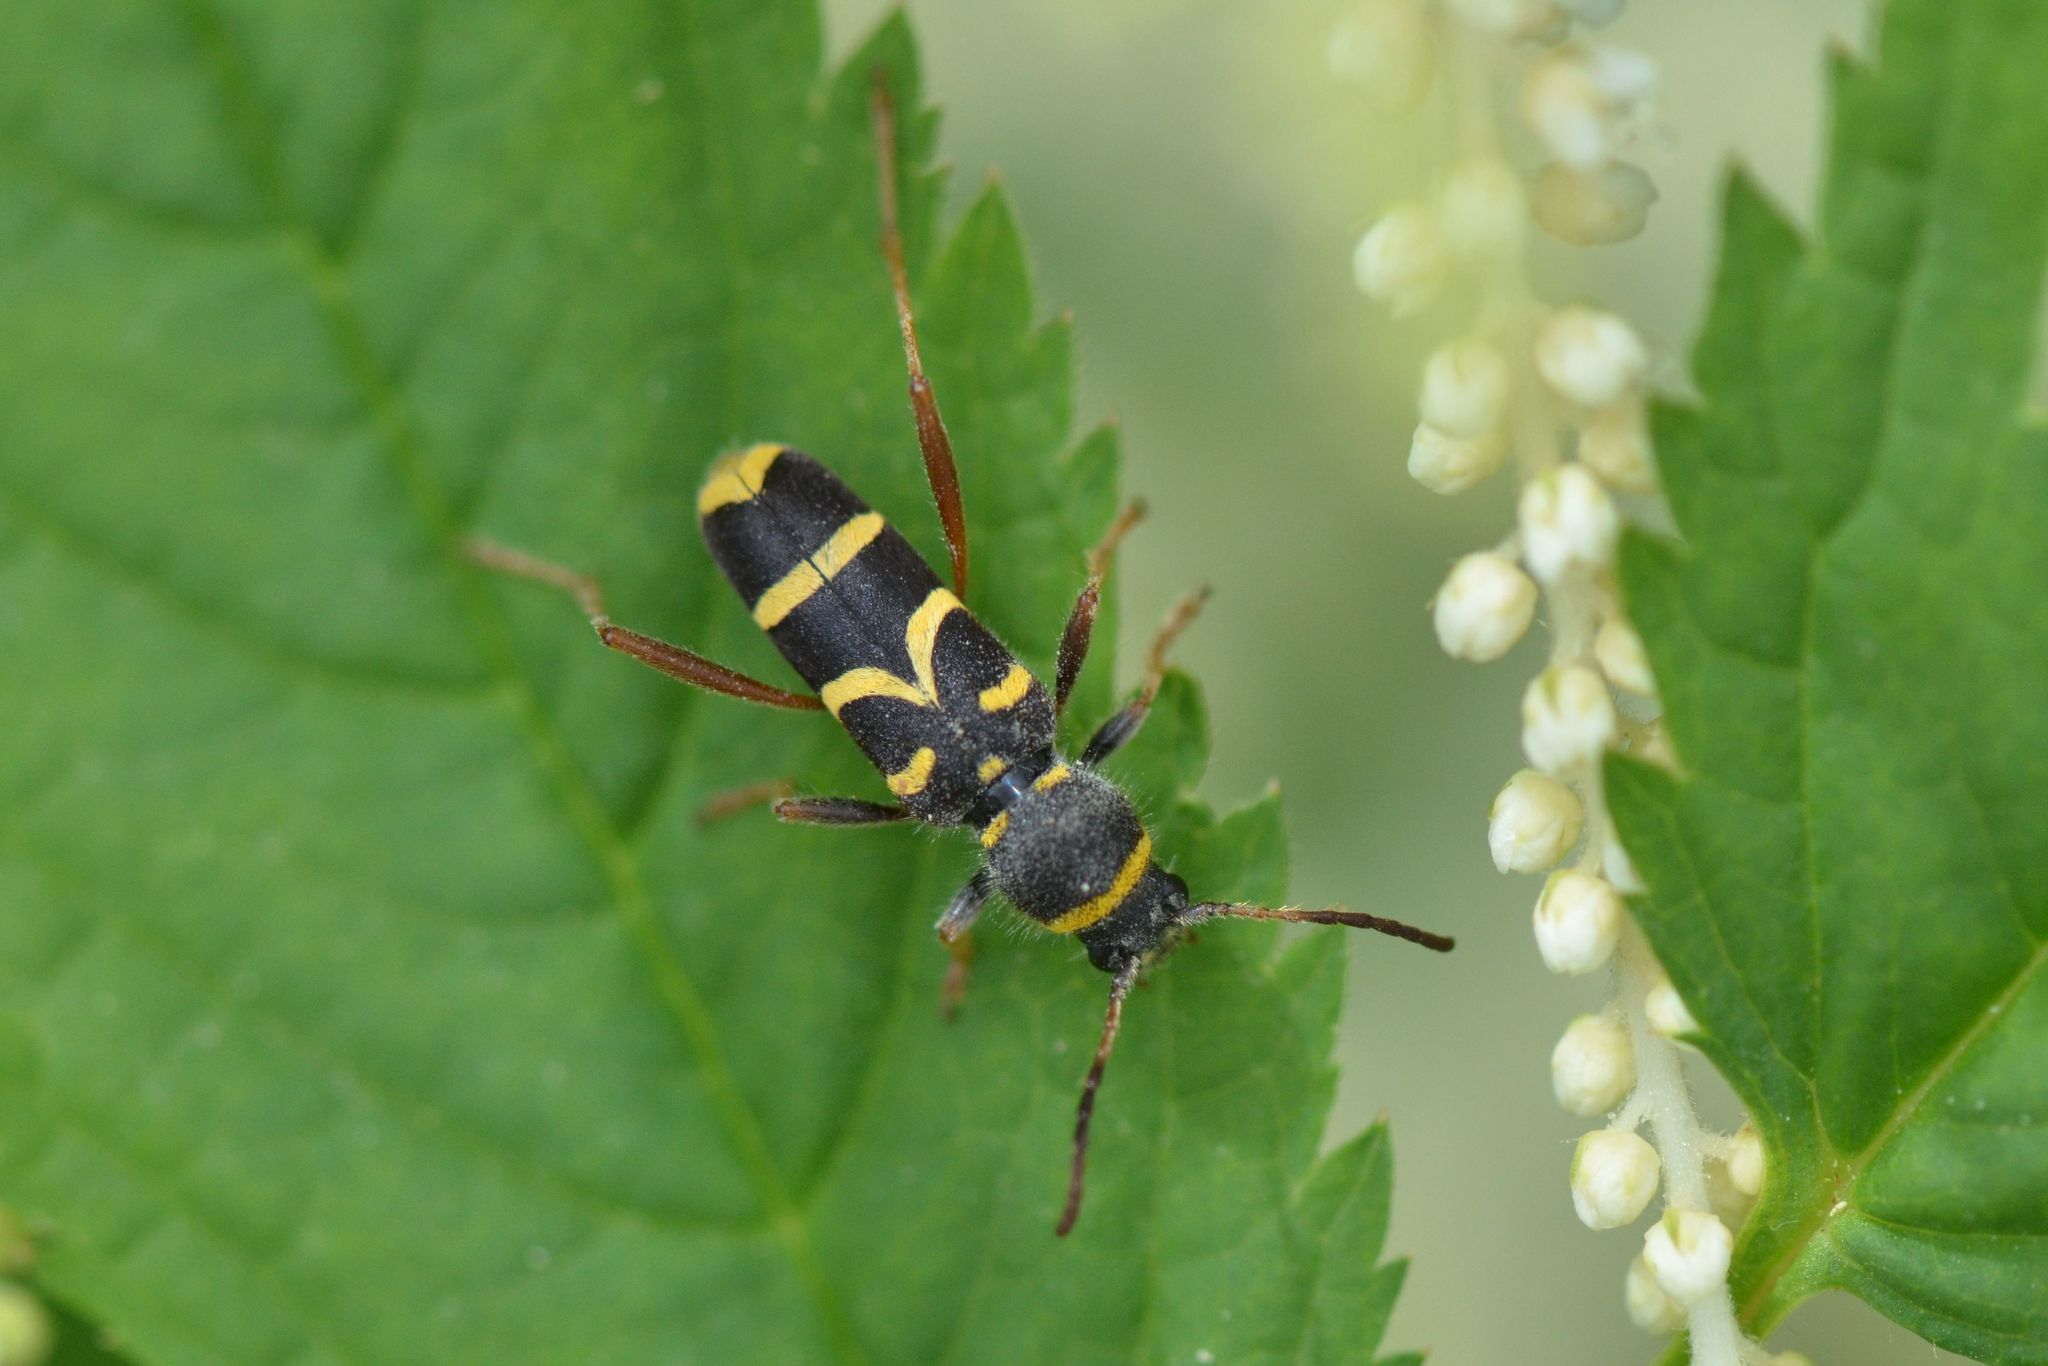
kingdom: Animalia
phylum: Arthropoda
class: Insecta
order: Coleoptera
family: Cerambycidae
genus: Clytus
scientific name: Clytus arietis
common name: Wasp beetle
